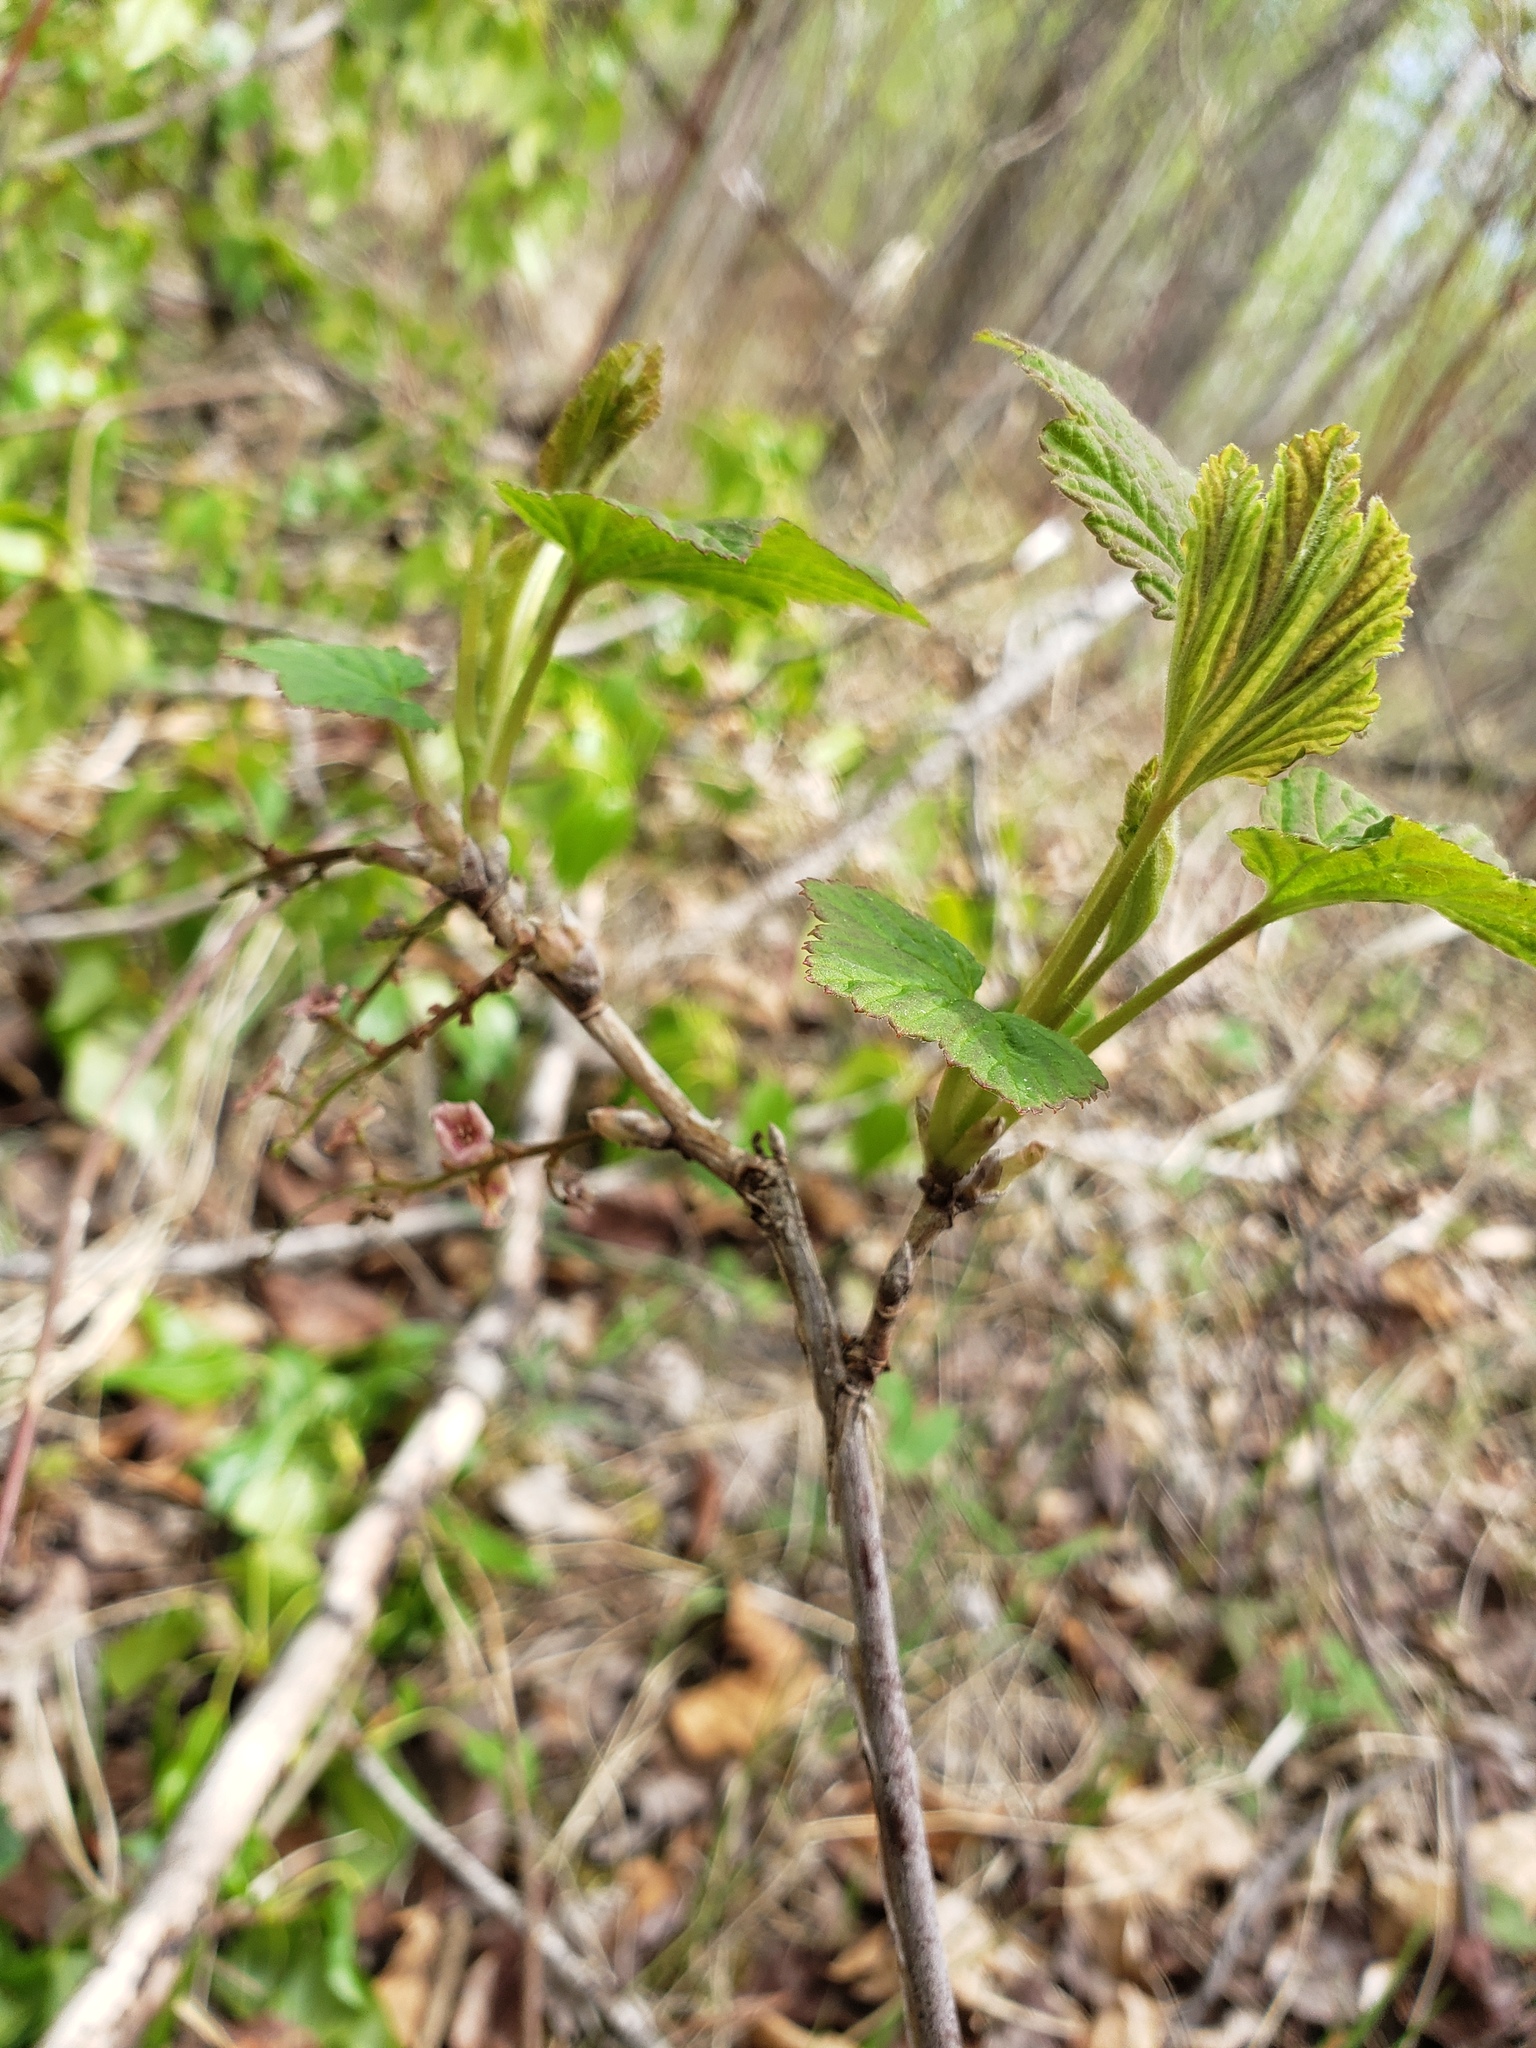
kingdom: Plantae
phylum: Tracheophyta
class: Magnoliopsida
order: Saxifragales
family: Grossulariaceae
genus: Ribes
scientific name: Ribes triste
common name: Swamp red currant
